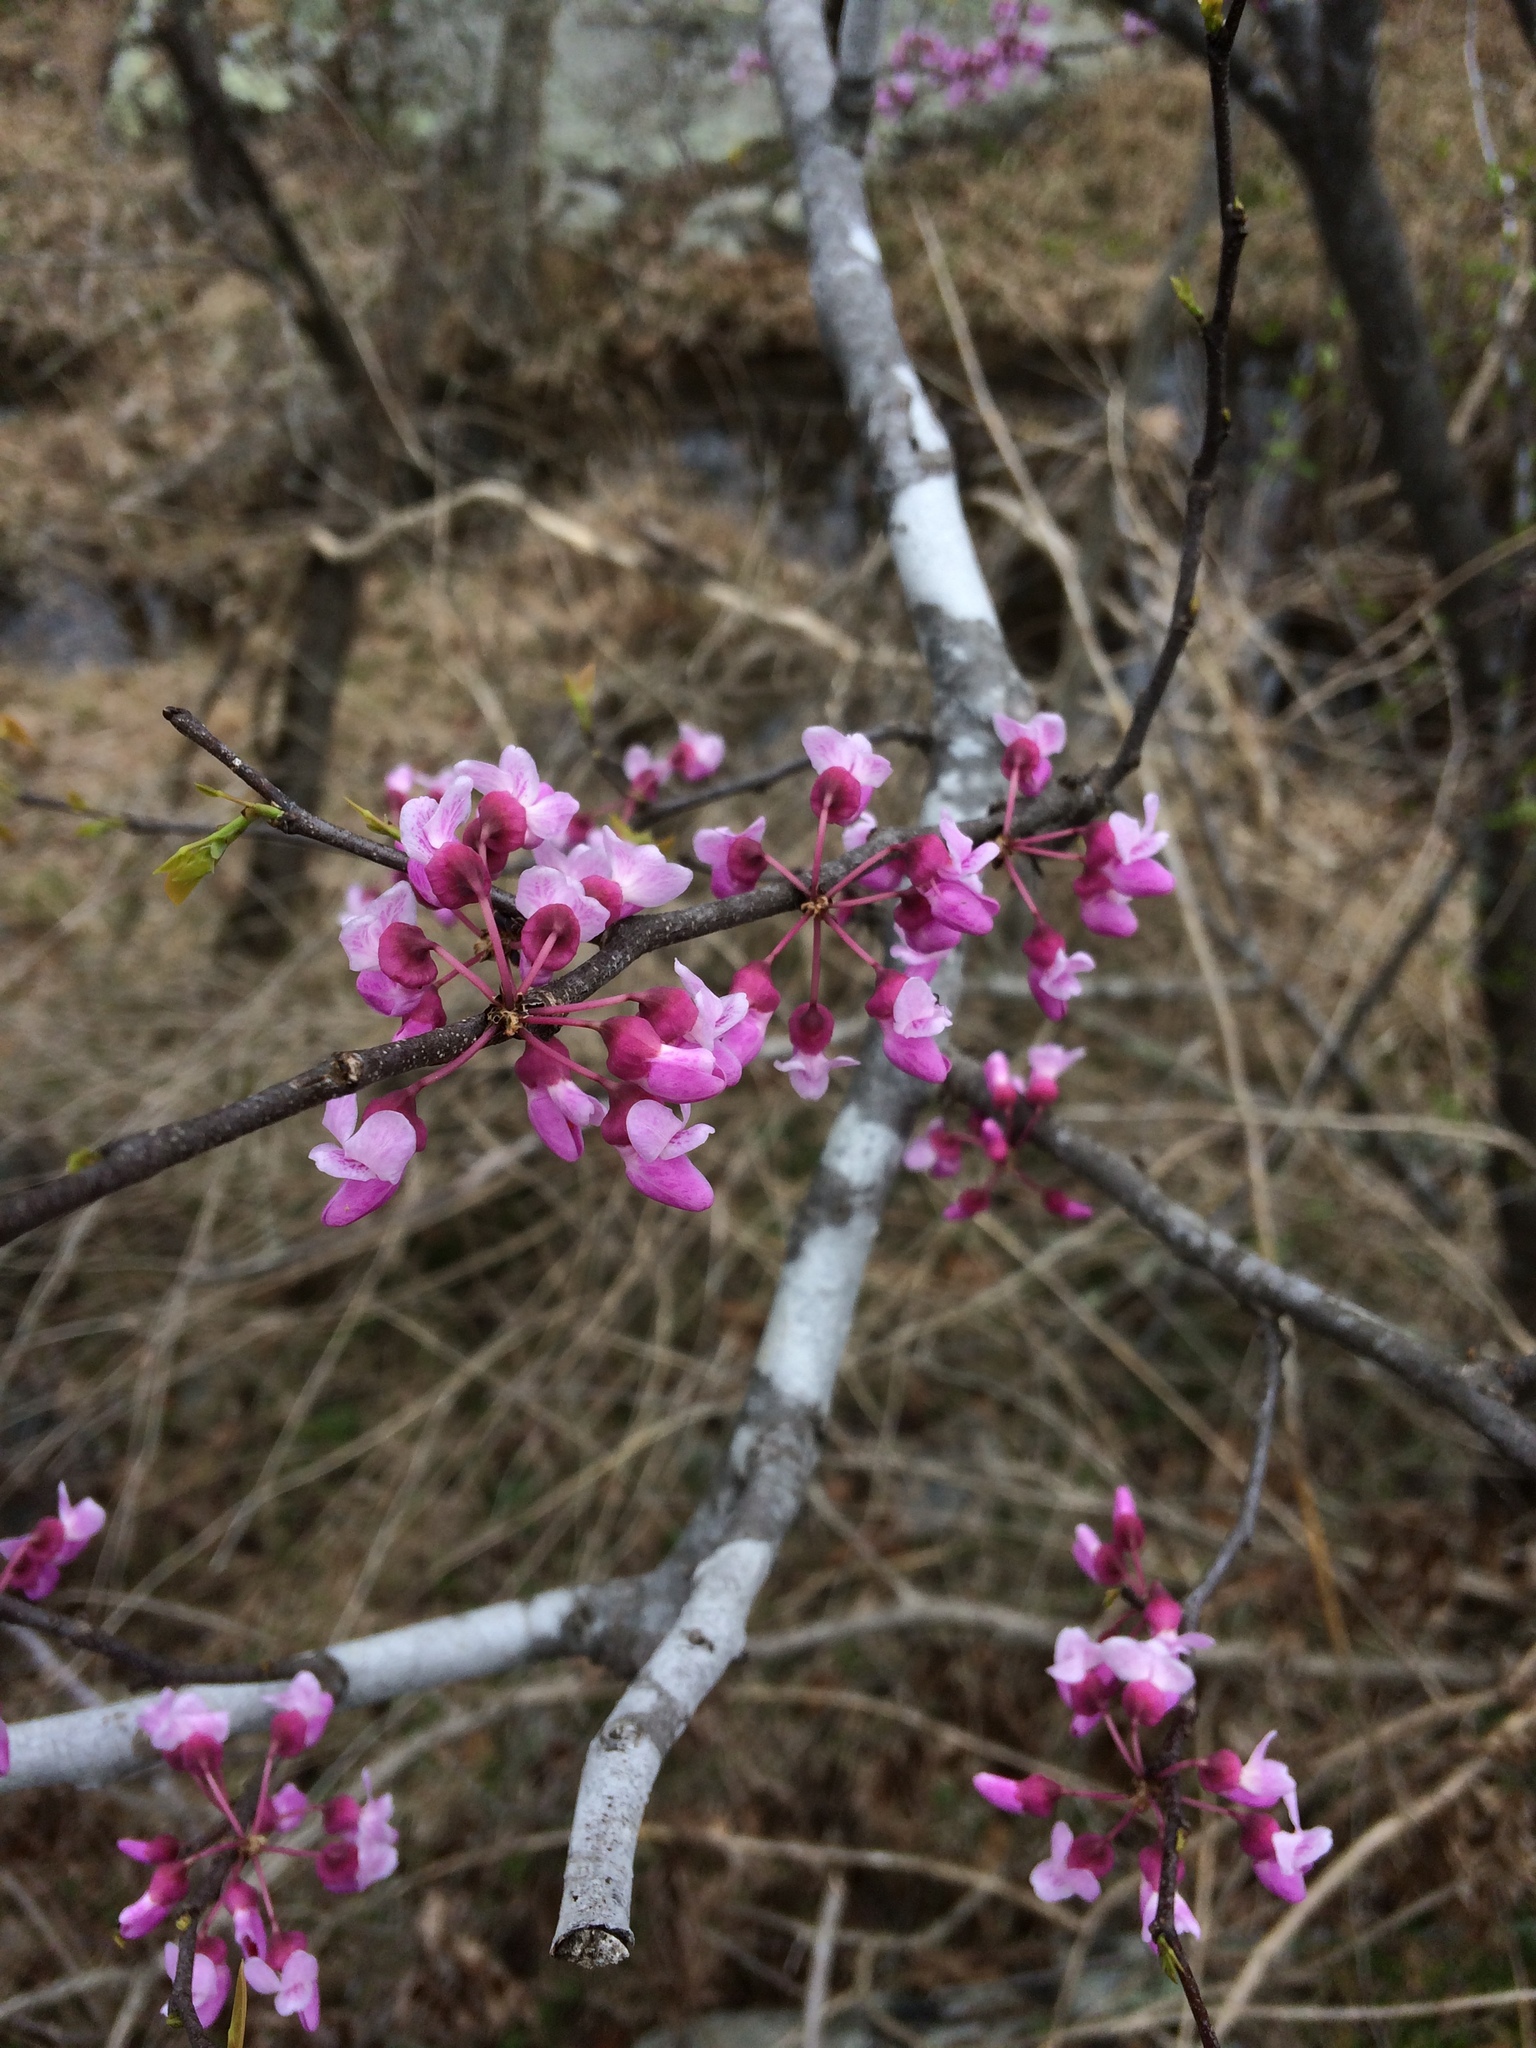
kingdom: Plantae
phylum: Tracheophyta
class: Magnoliopsida
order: Fabales
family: Fabaceae
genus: Cercis
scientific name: Cercis canadensis
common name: Eastern redbud
